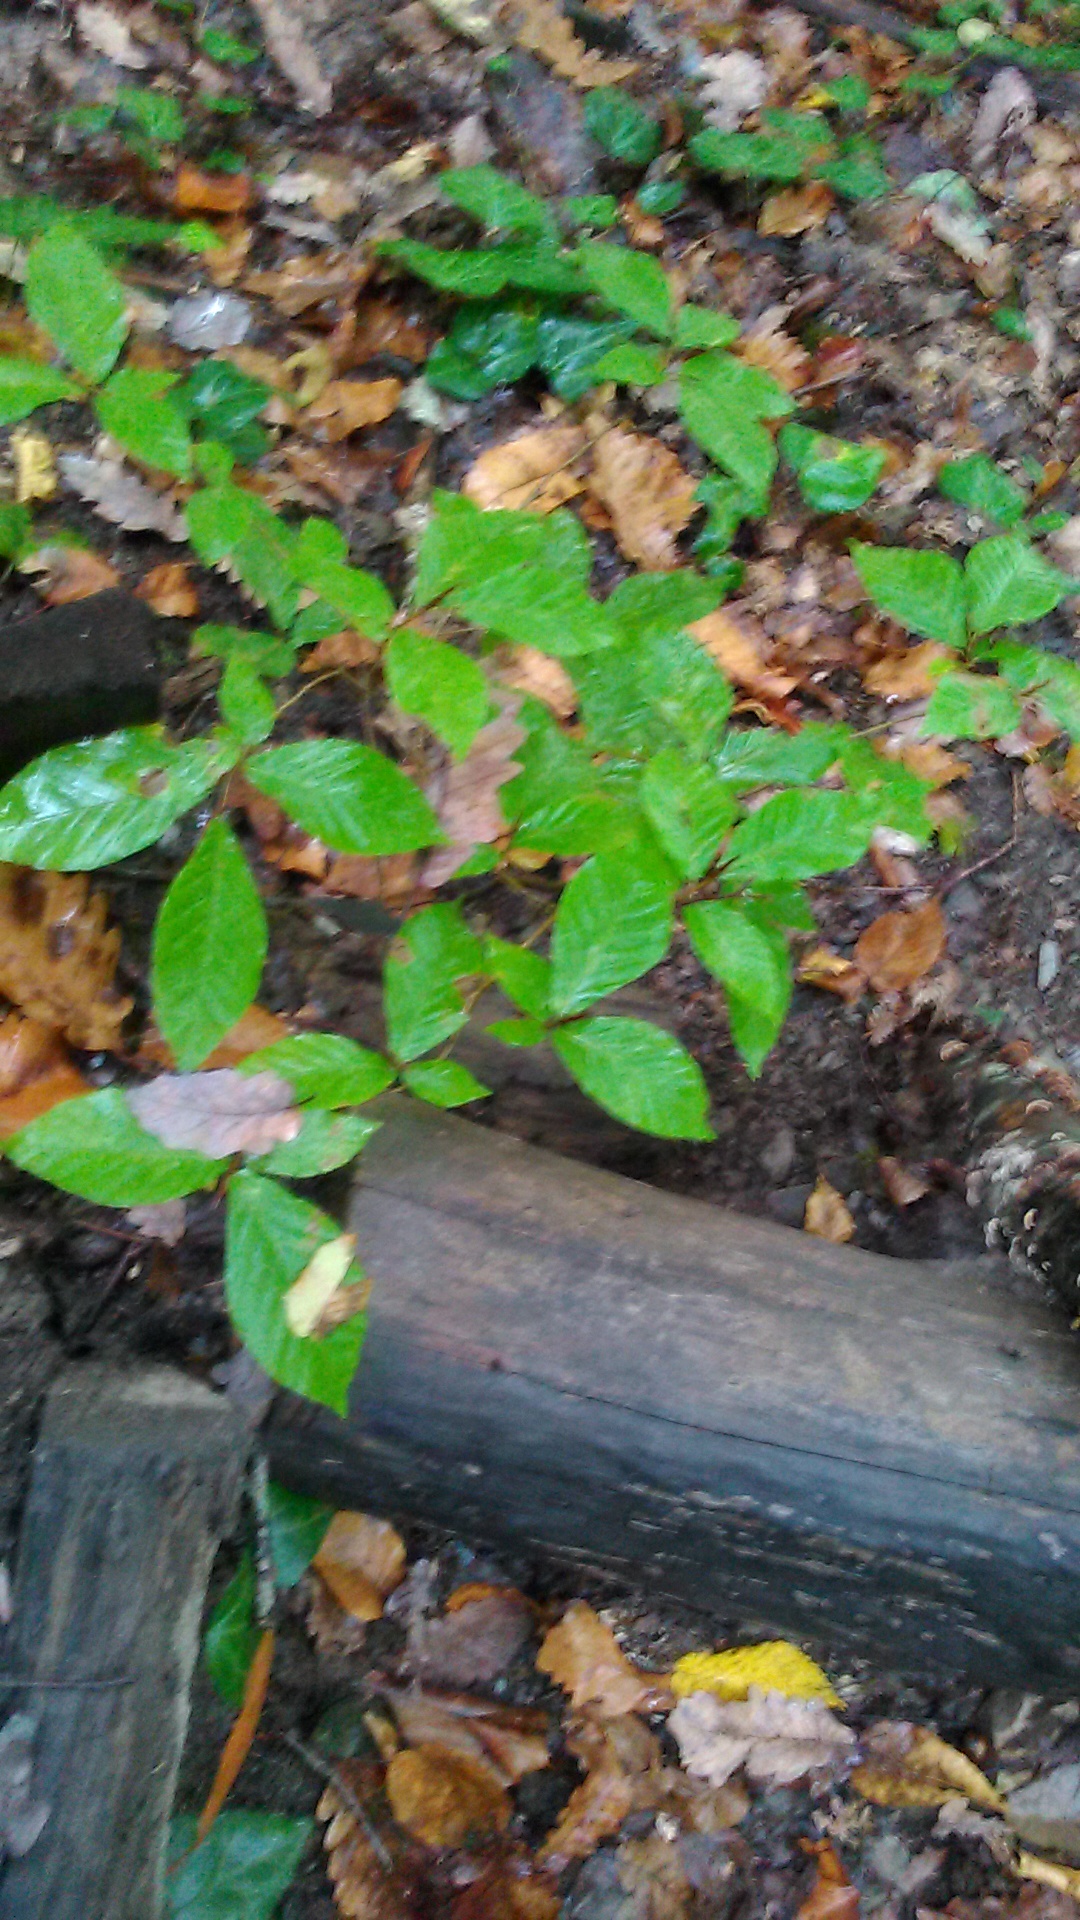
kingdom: Plantae
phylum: Tracheophyta
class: Magnoliopsida
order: Fagales
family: Fagaceae
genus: Fagus
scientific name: Fagus orientalis
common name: Oriental beech
